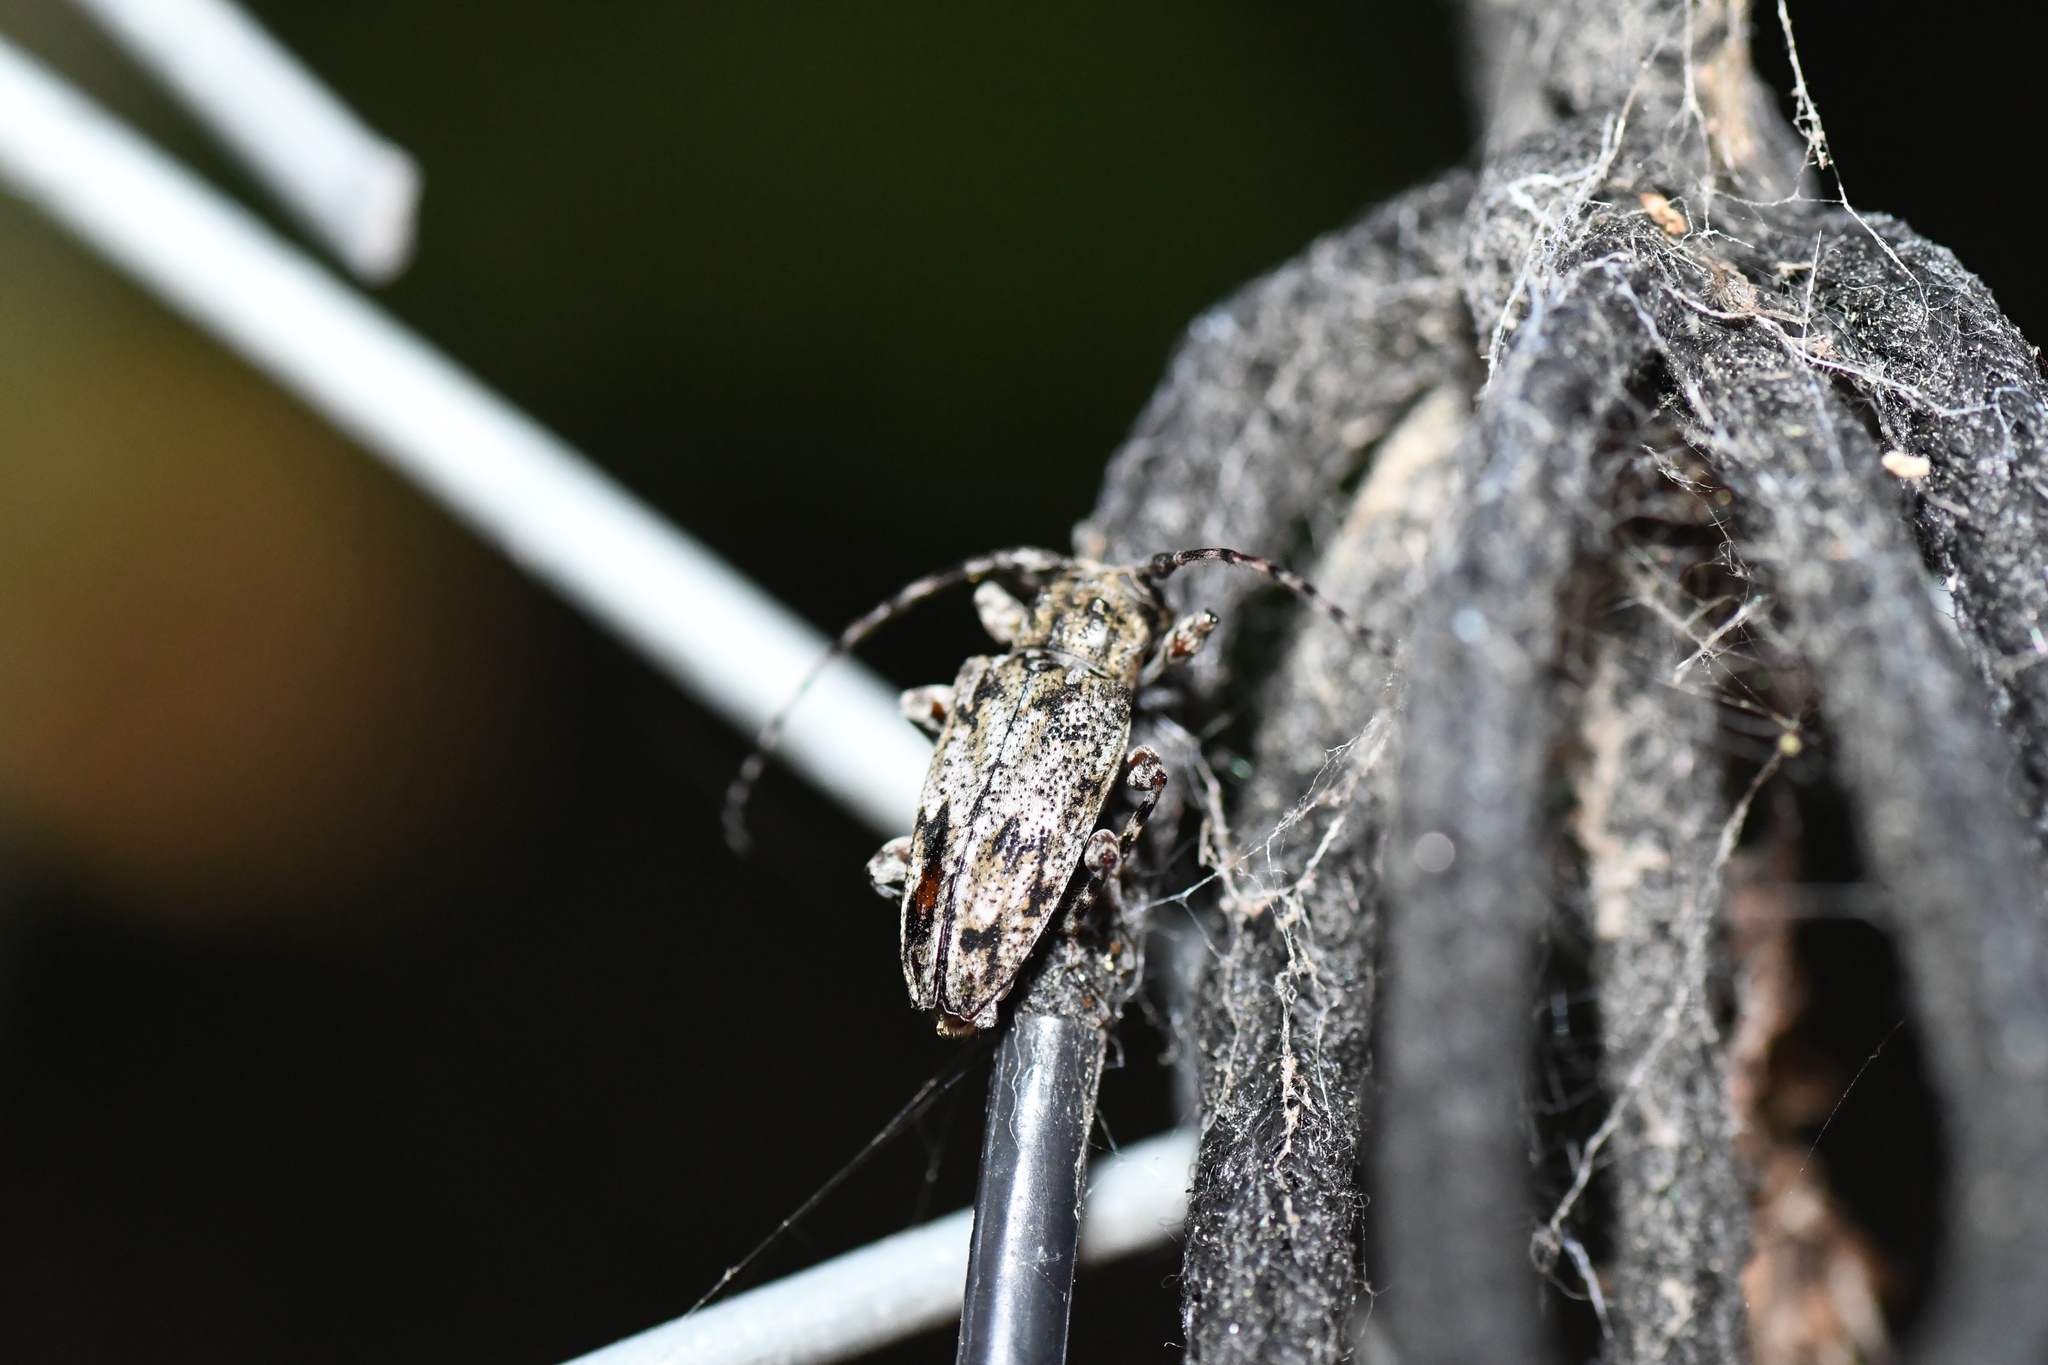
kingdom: Animalia
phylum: Arthropoda
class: Insecta
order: Coleoptera
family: Cerambycidae
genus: Aegomorphus
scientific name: Aegomorphus modestus
